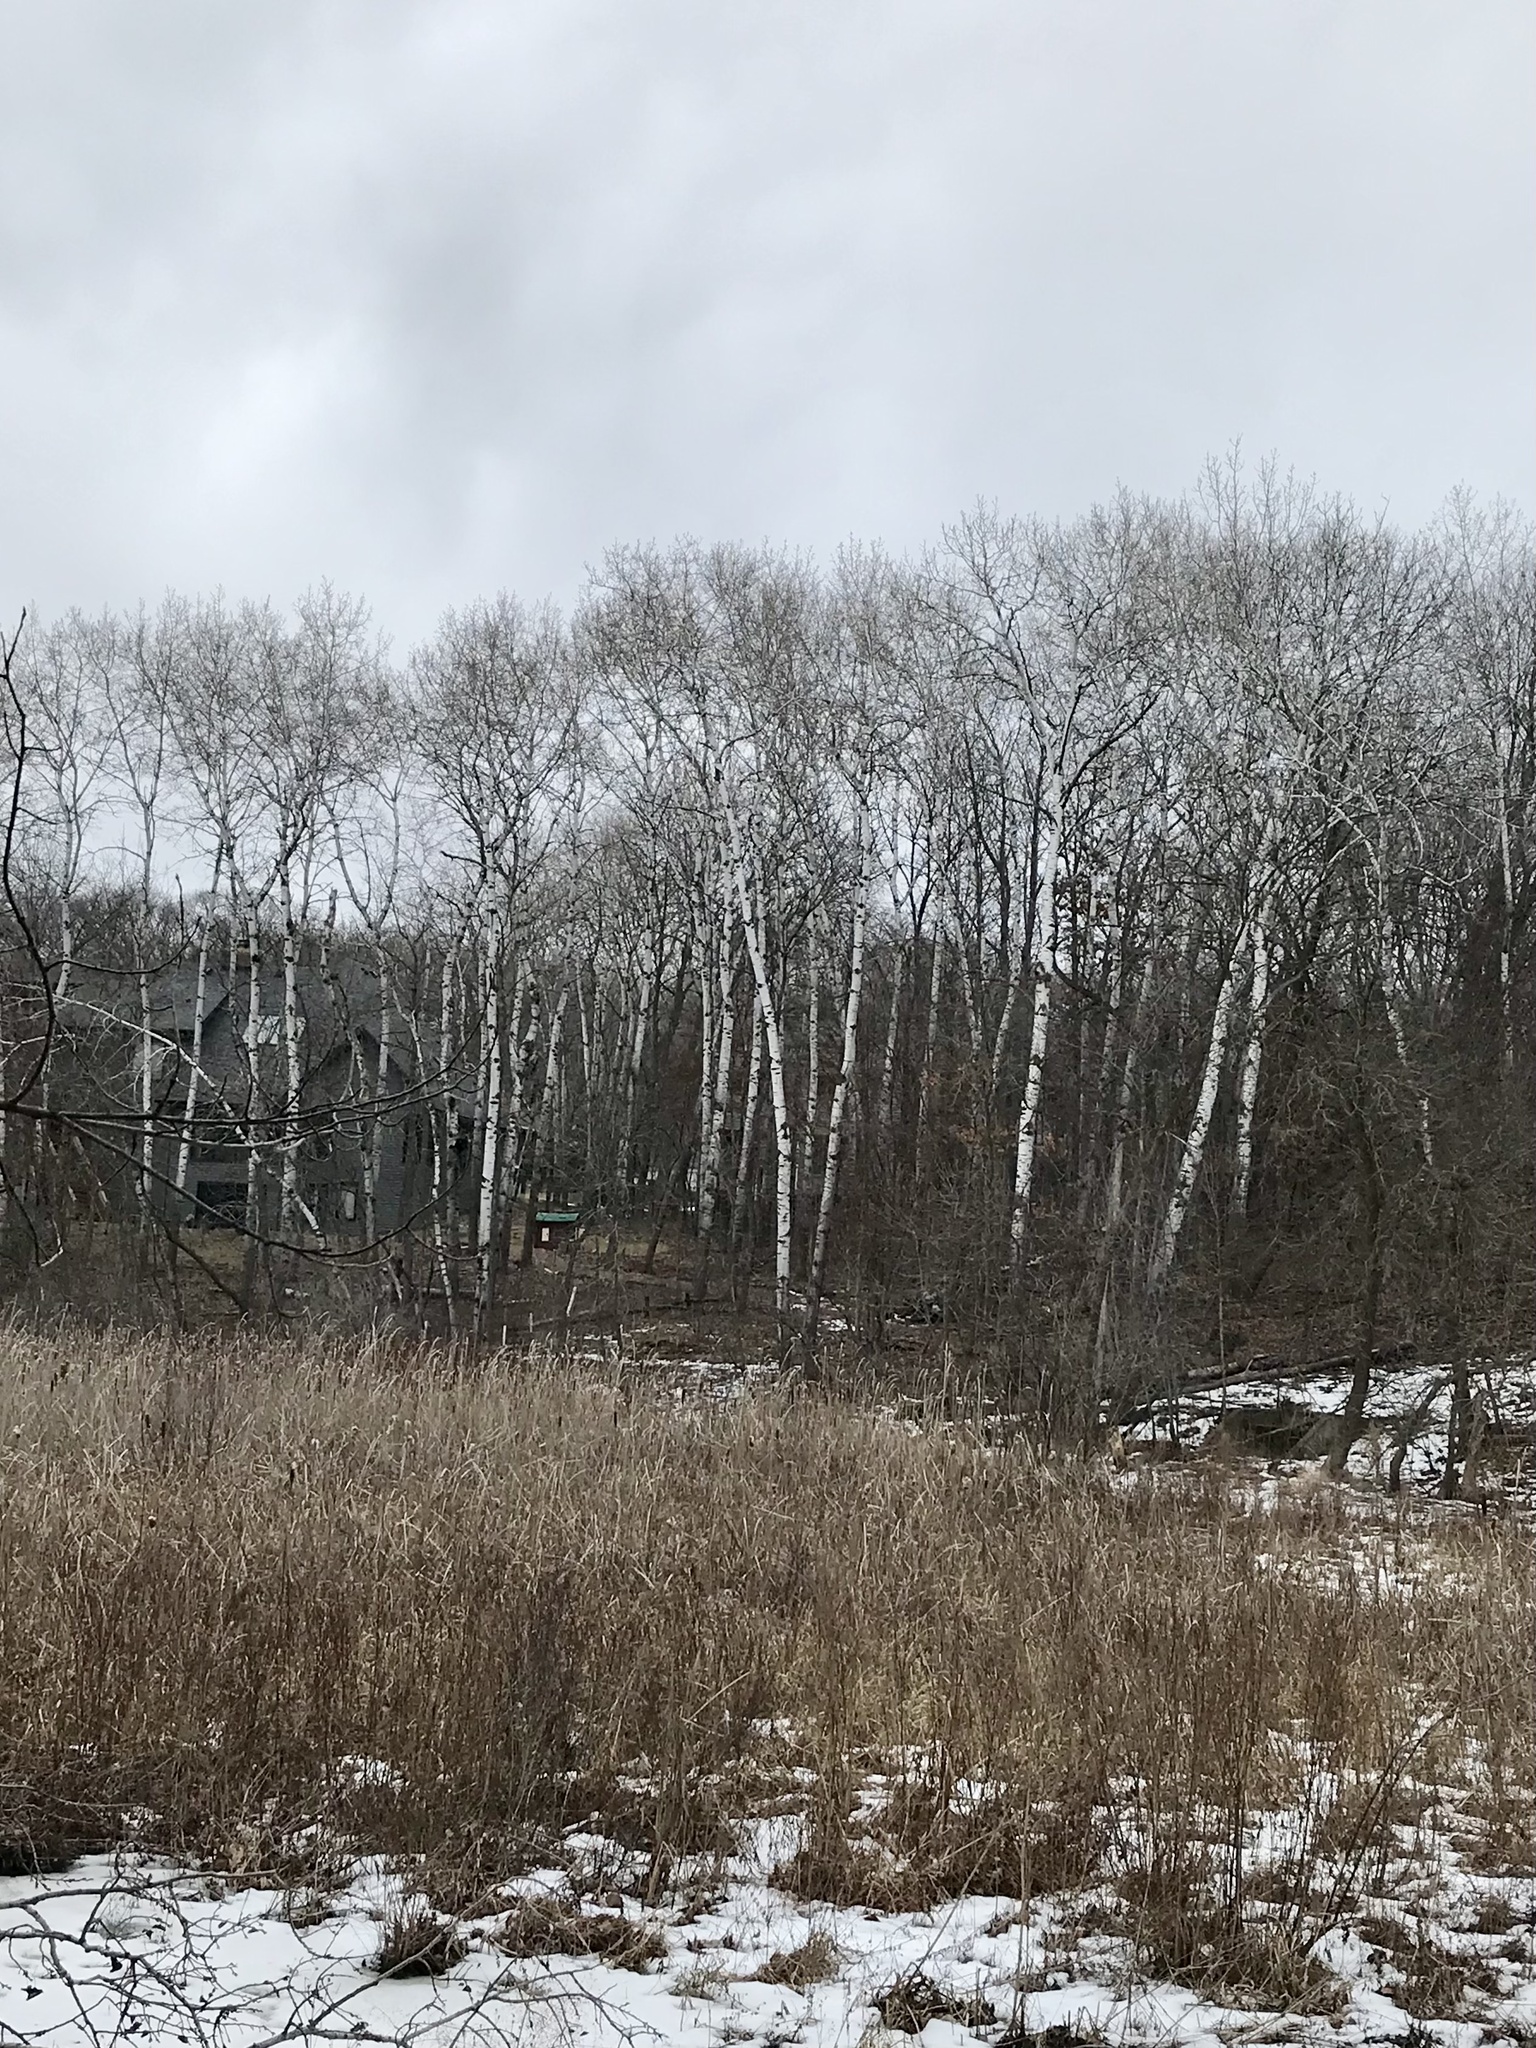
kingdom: Plantae
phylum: Tracheophyta
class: Magnoliopsida
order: Malpighiales
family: Salicaceae
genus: Populus
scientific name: Populus tremuloides
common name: Quaking aspen
